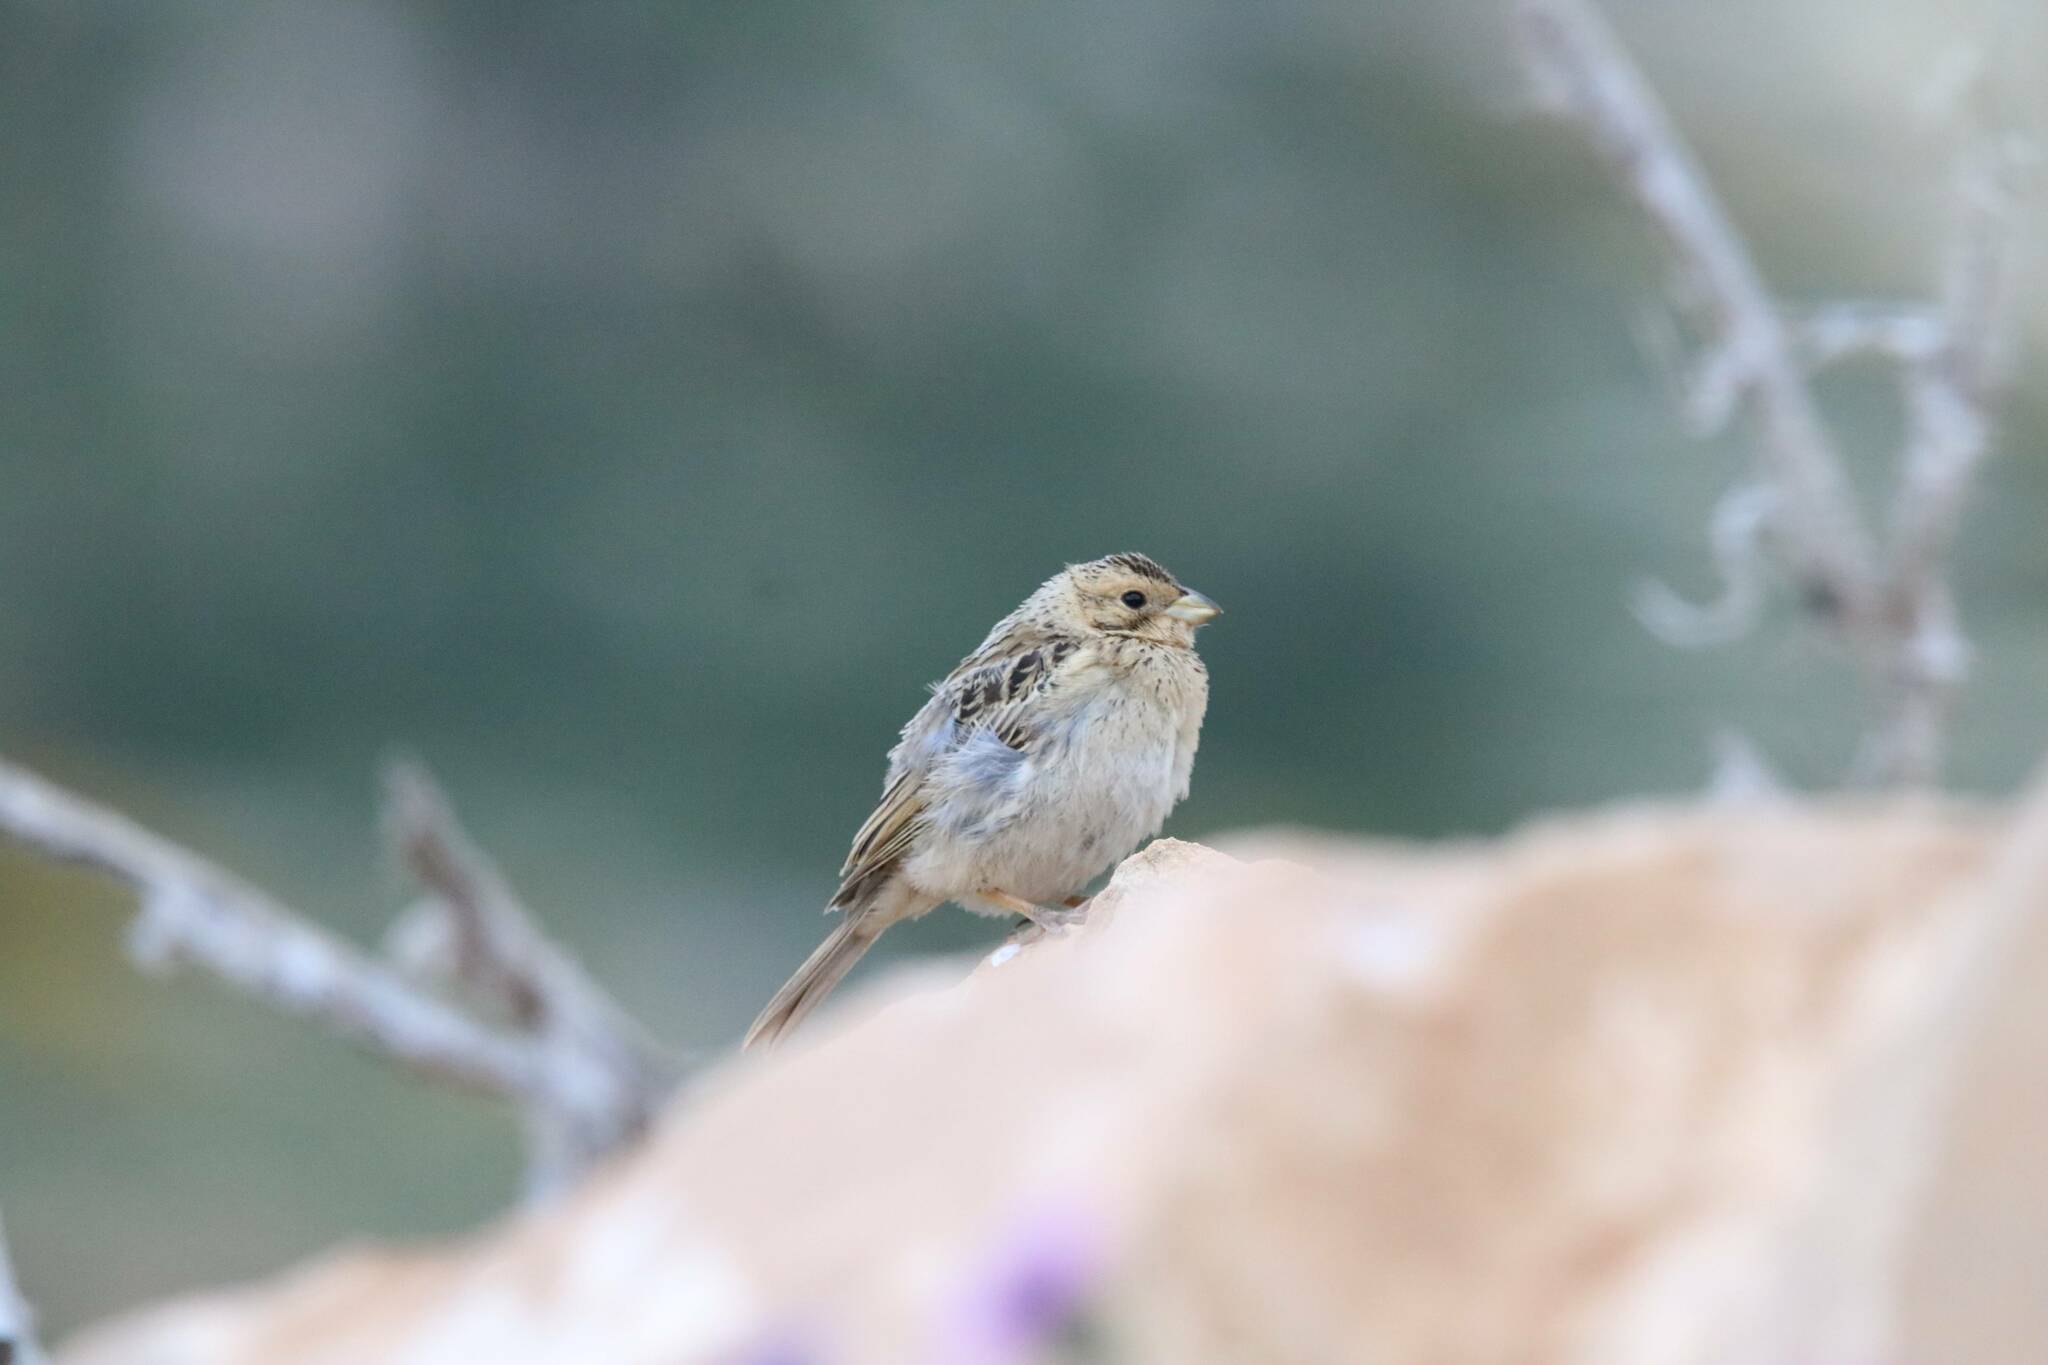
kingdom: Animalia
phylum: Chordata
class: Aves
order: Passeriformes
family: Emberizidae
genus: Emberiza
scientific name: Emberiza calandra
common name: Corn bunting
